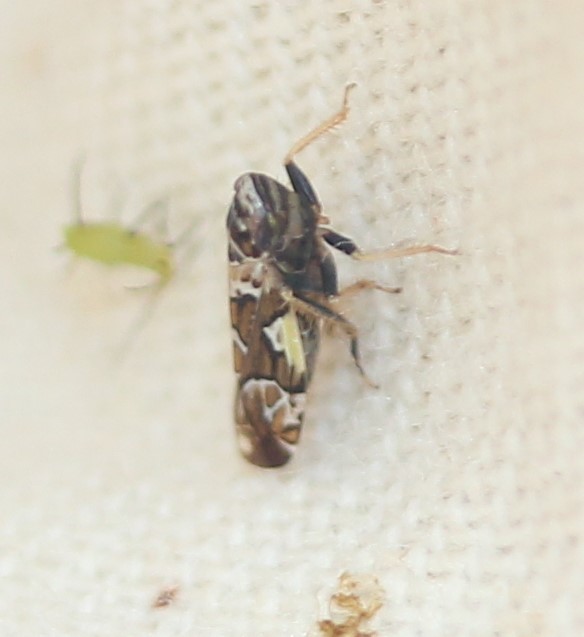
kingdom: Animalia
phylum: Arthropoda
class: Insecta
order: Hemiptera
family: Cicadellidae
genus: Sanctanus
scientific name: Sanctanus cruciatus
